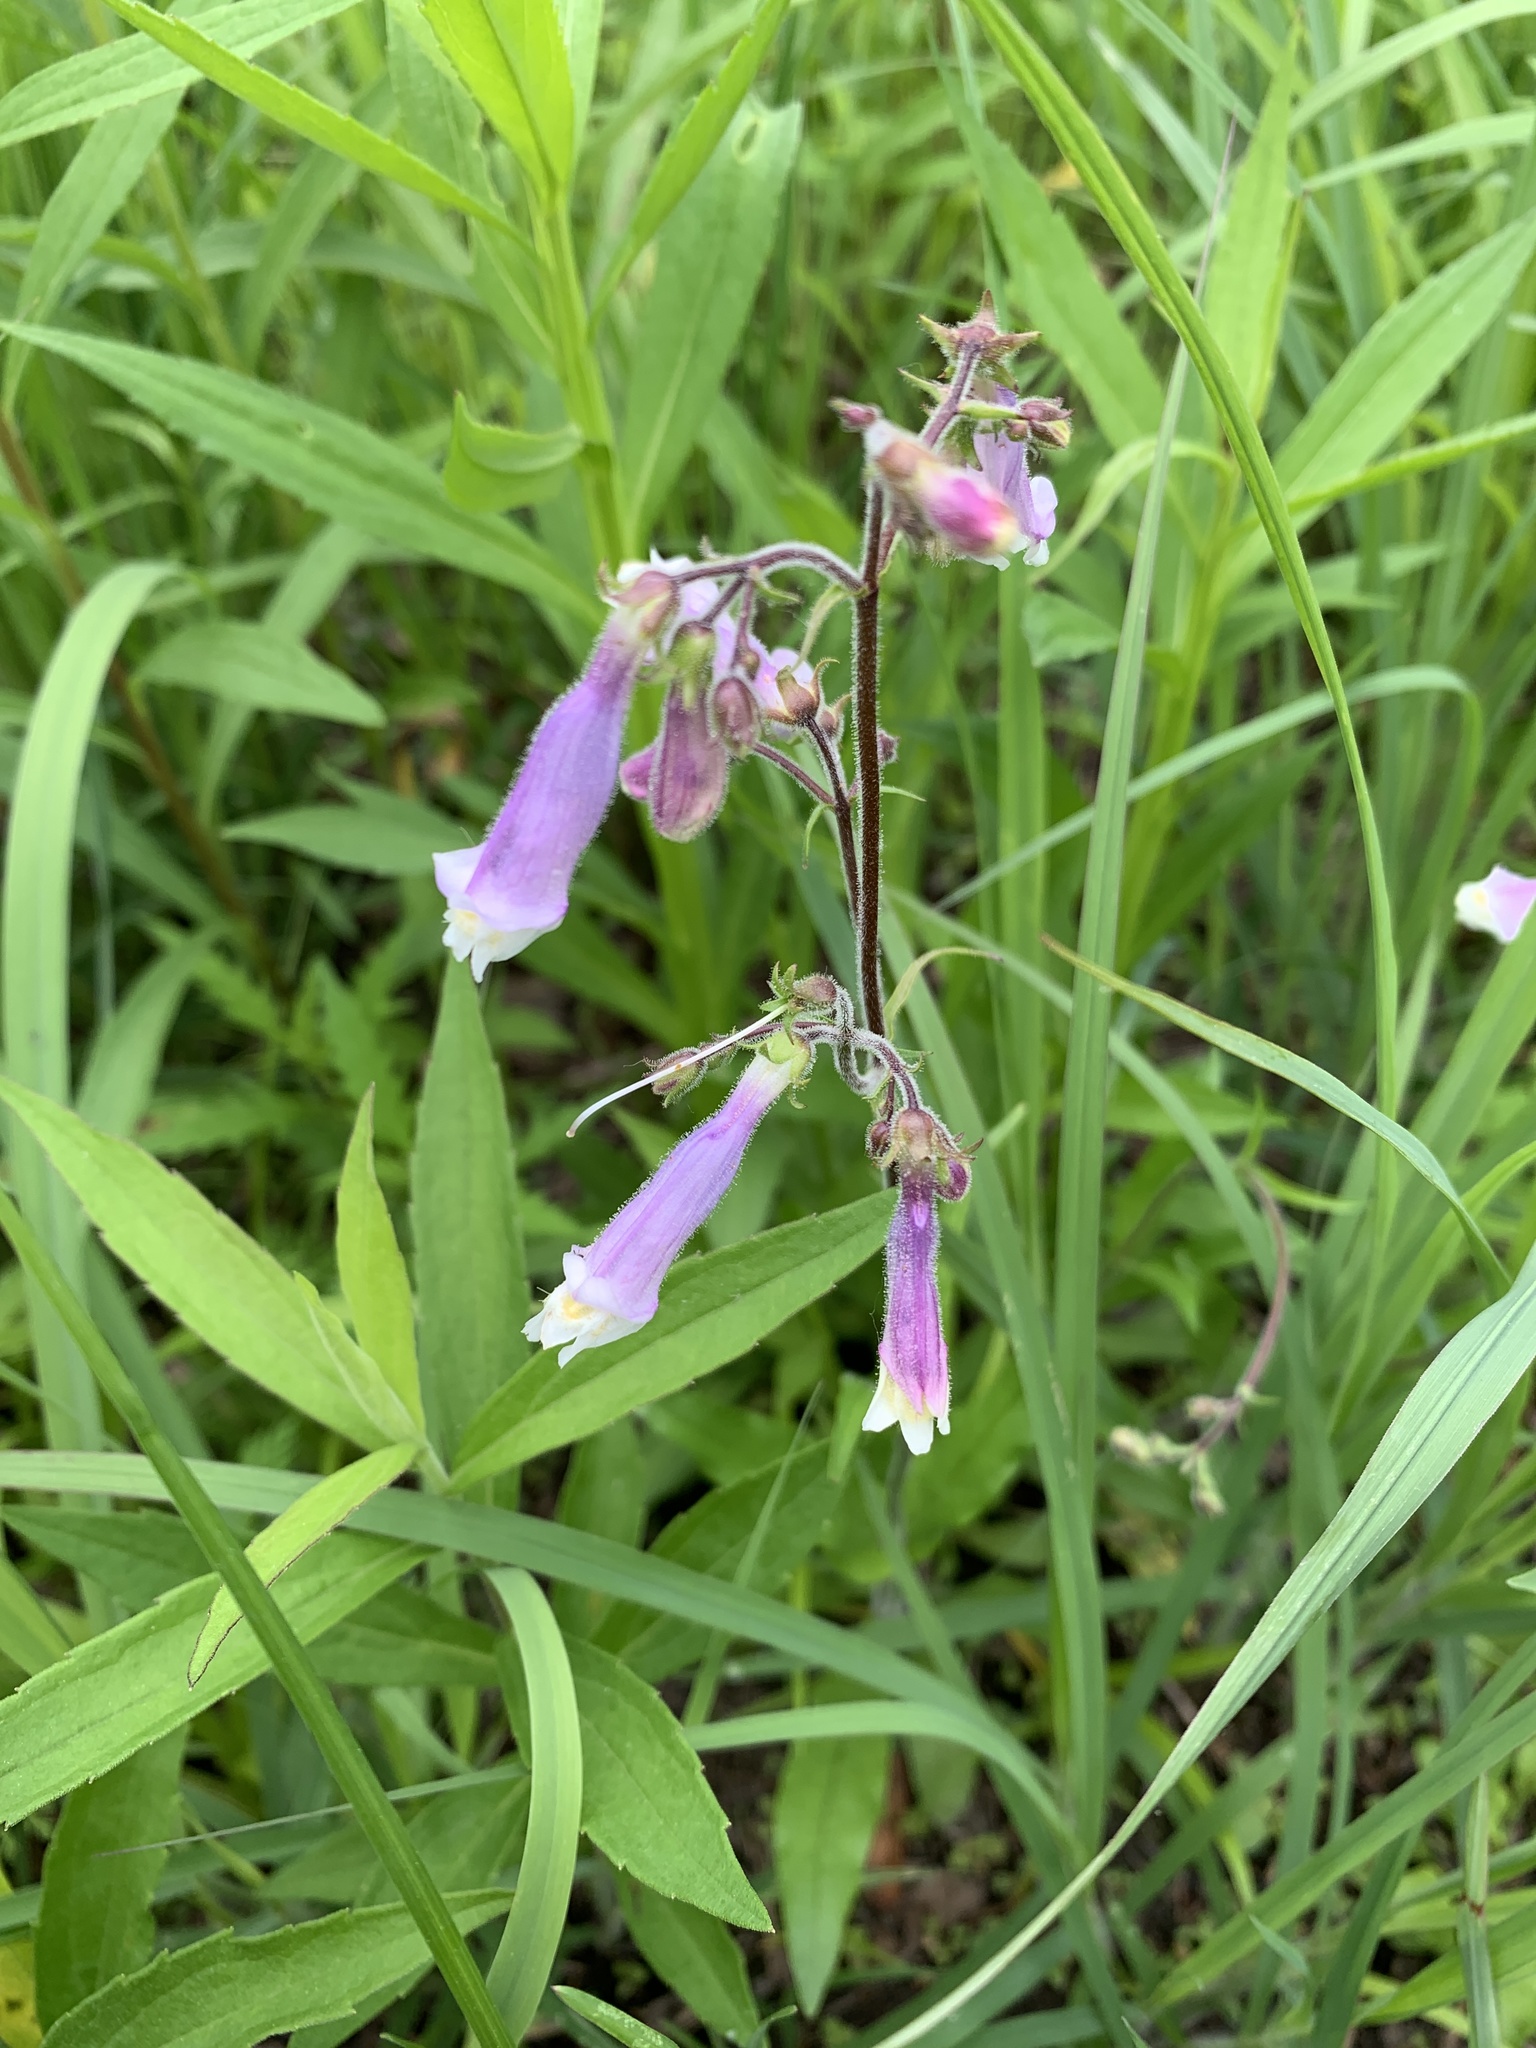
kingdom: Plantae
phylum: Tracheophyta
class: Magnoliopsida
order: Lamiales
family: Plantaginaceae
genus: Penstemon
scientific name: Penstemon hirsutus
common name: Hairy beardtongue
